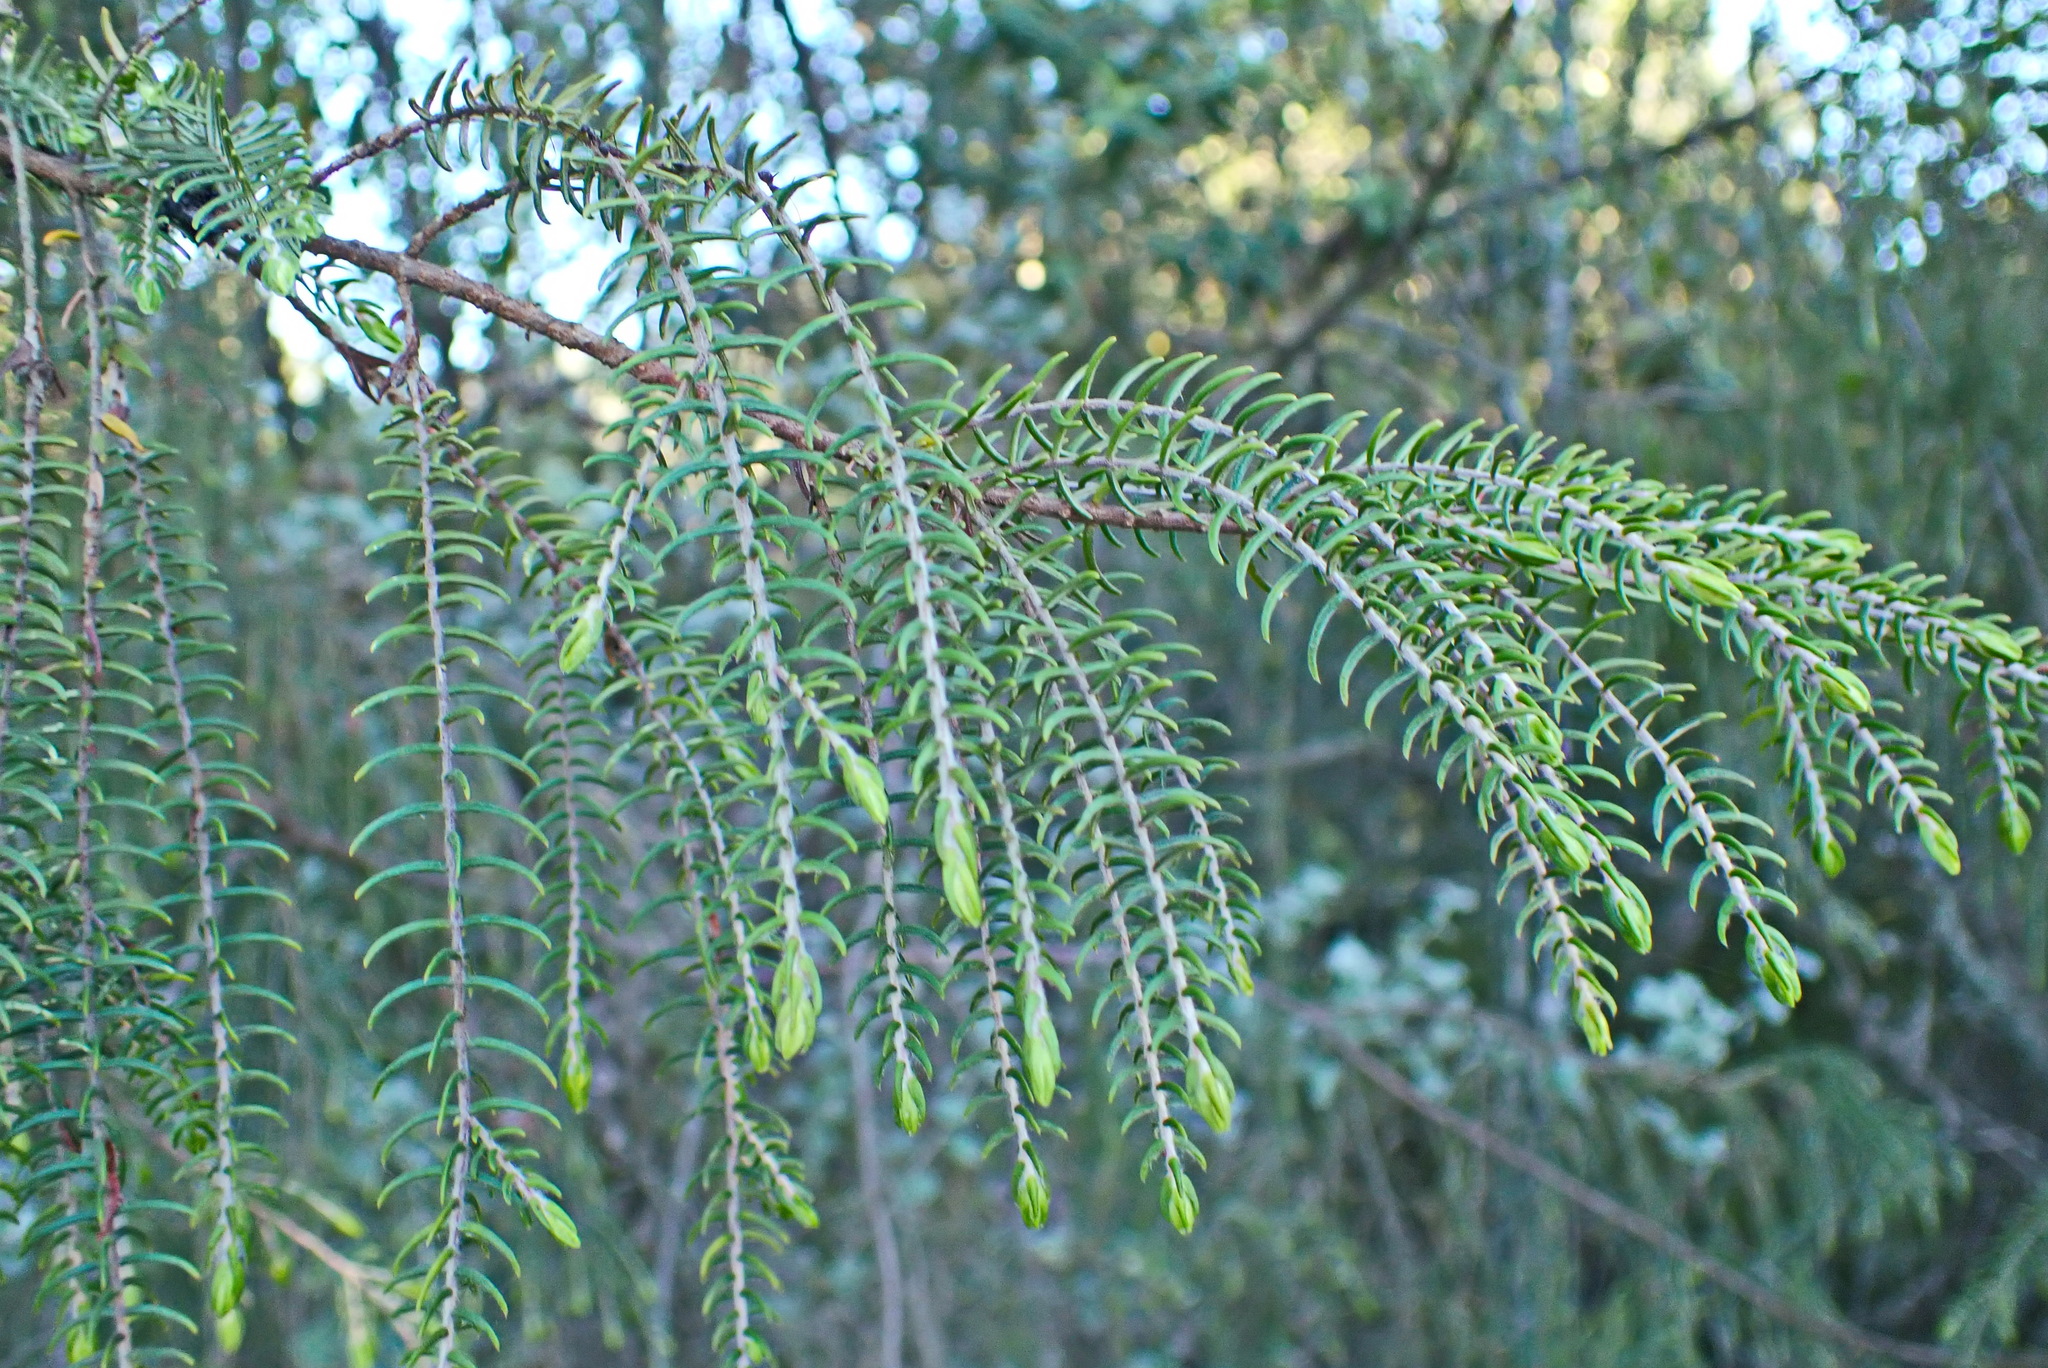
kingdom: Plantae
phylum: Tracheophyta
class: Magnoliopsida
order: Malvales
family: Thymelaeaceae
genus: Passerina
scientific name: Passerina falcifolia
